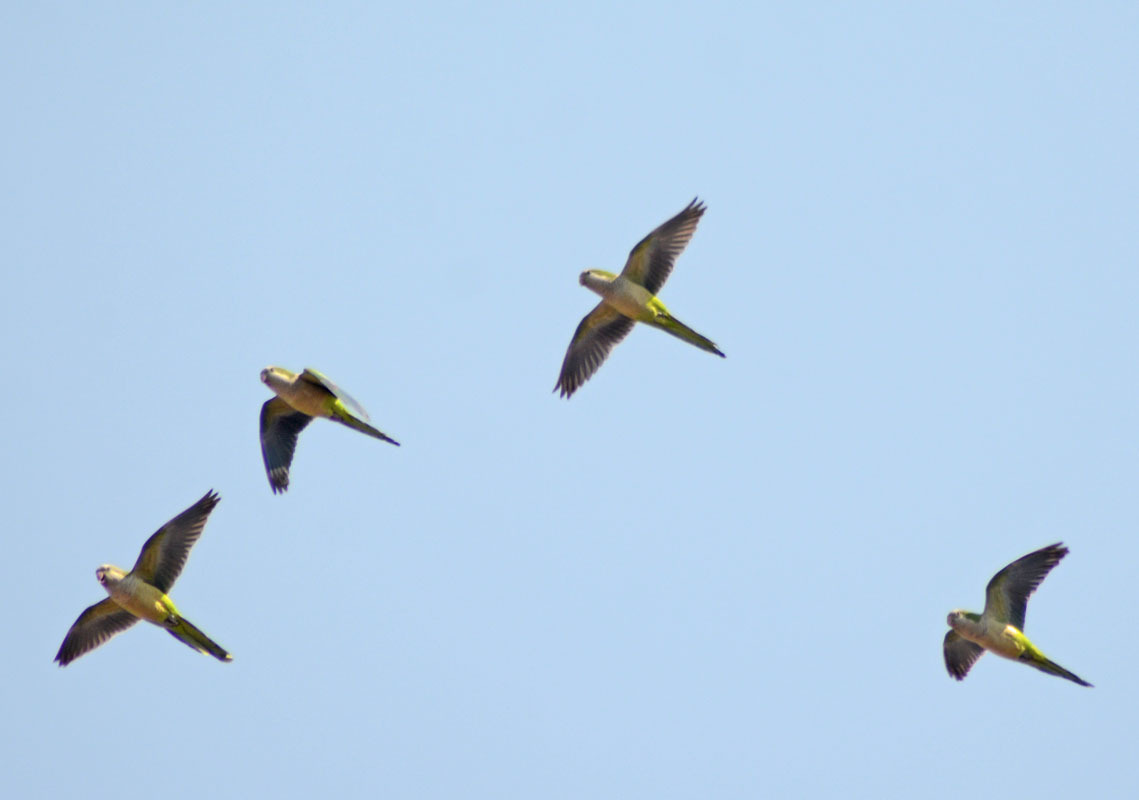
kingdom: Animalia
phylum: Chordata
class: Aves
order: Psittaciformes
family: Psittacidae
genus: Myiopsitta
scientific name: Myiopsitta monachus
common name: Monk parakeet
